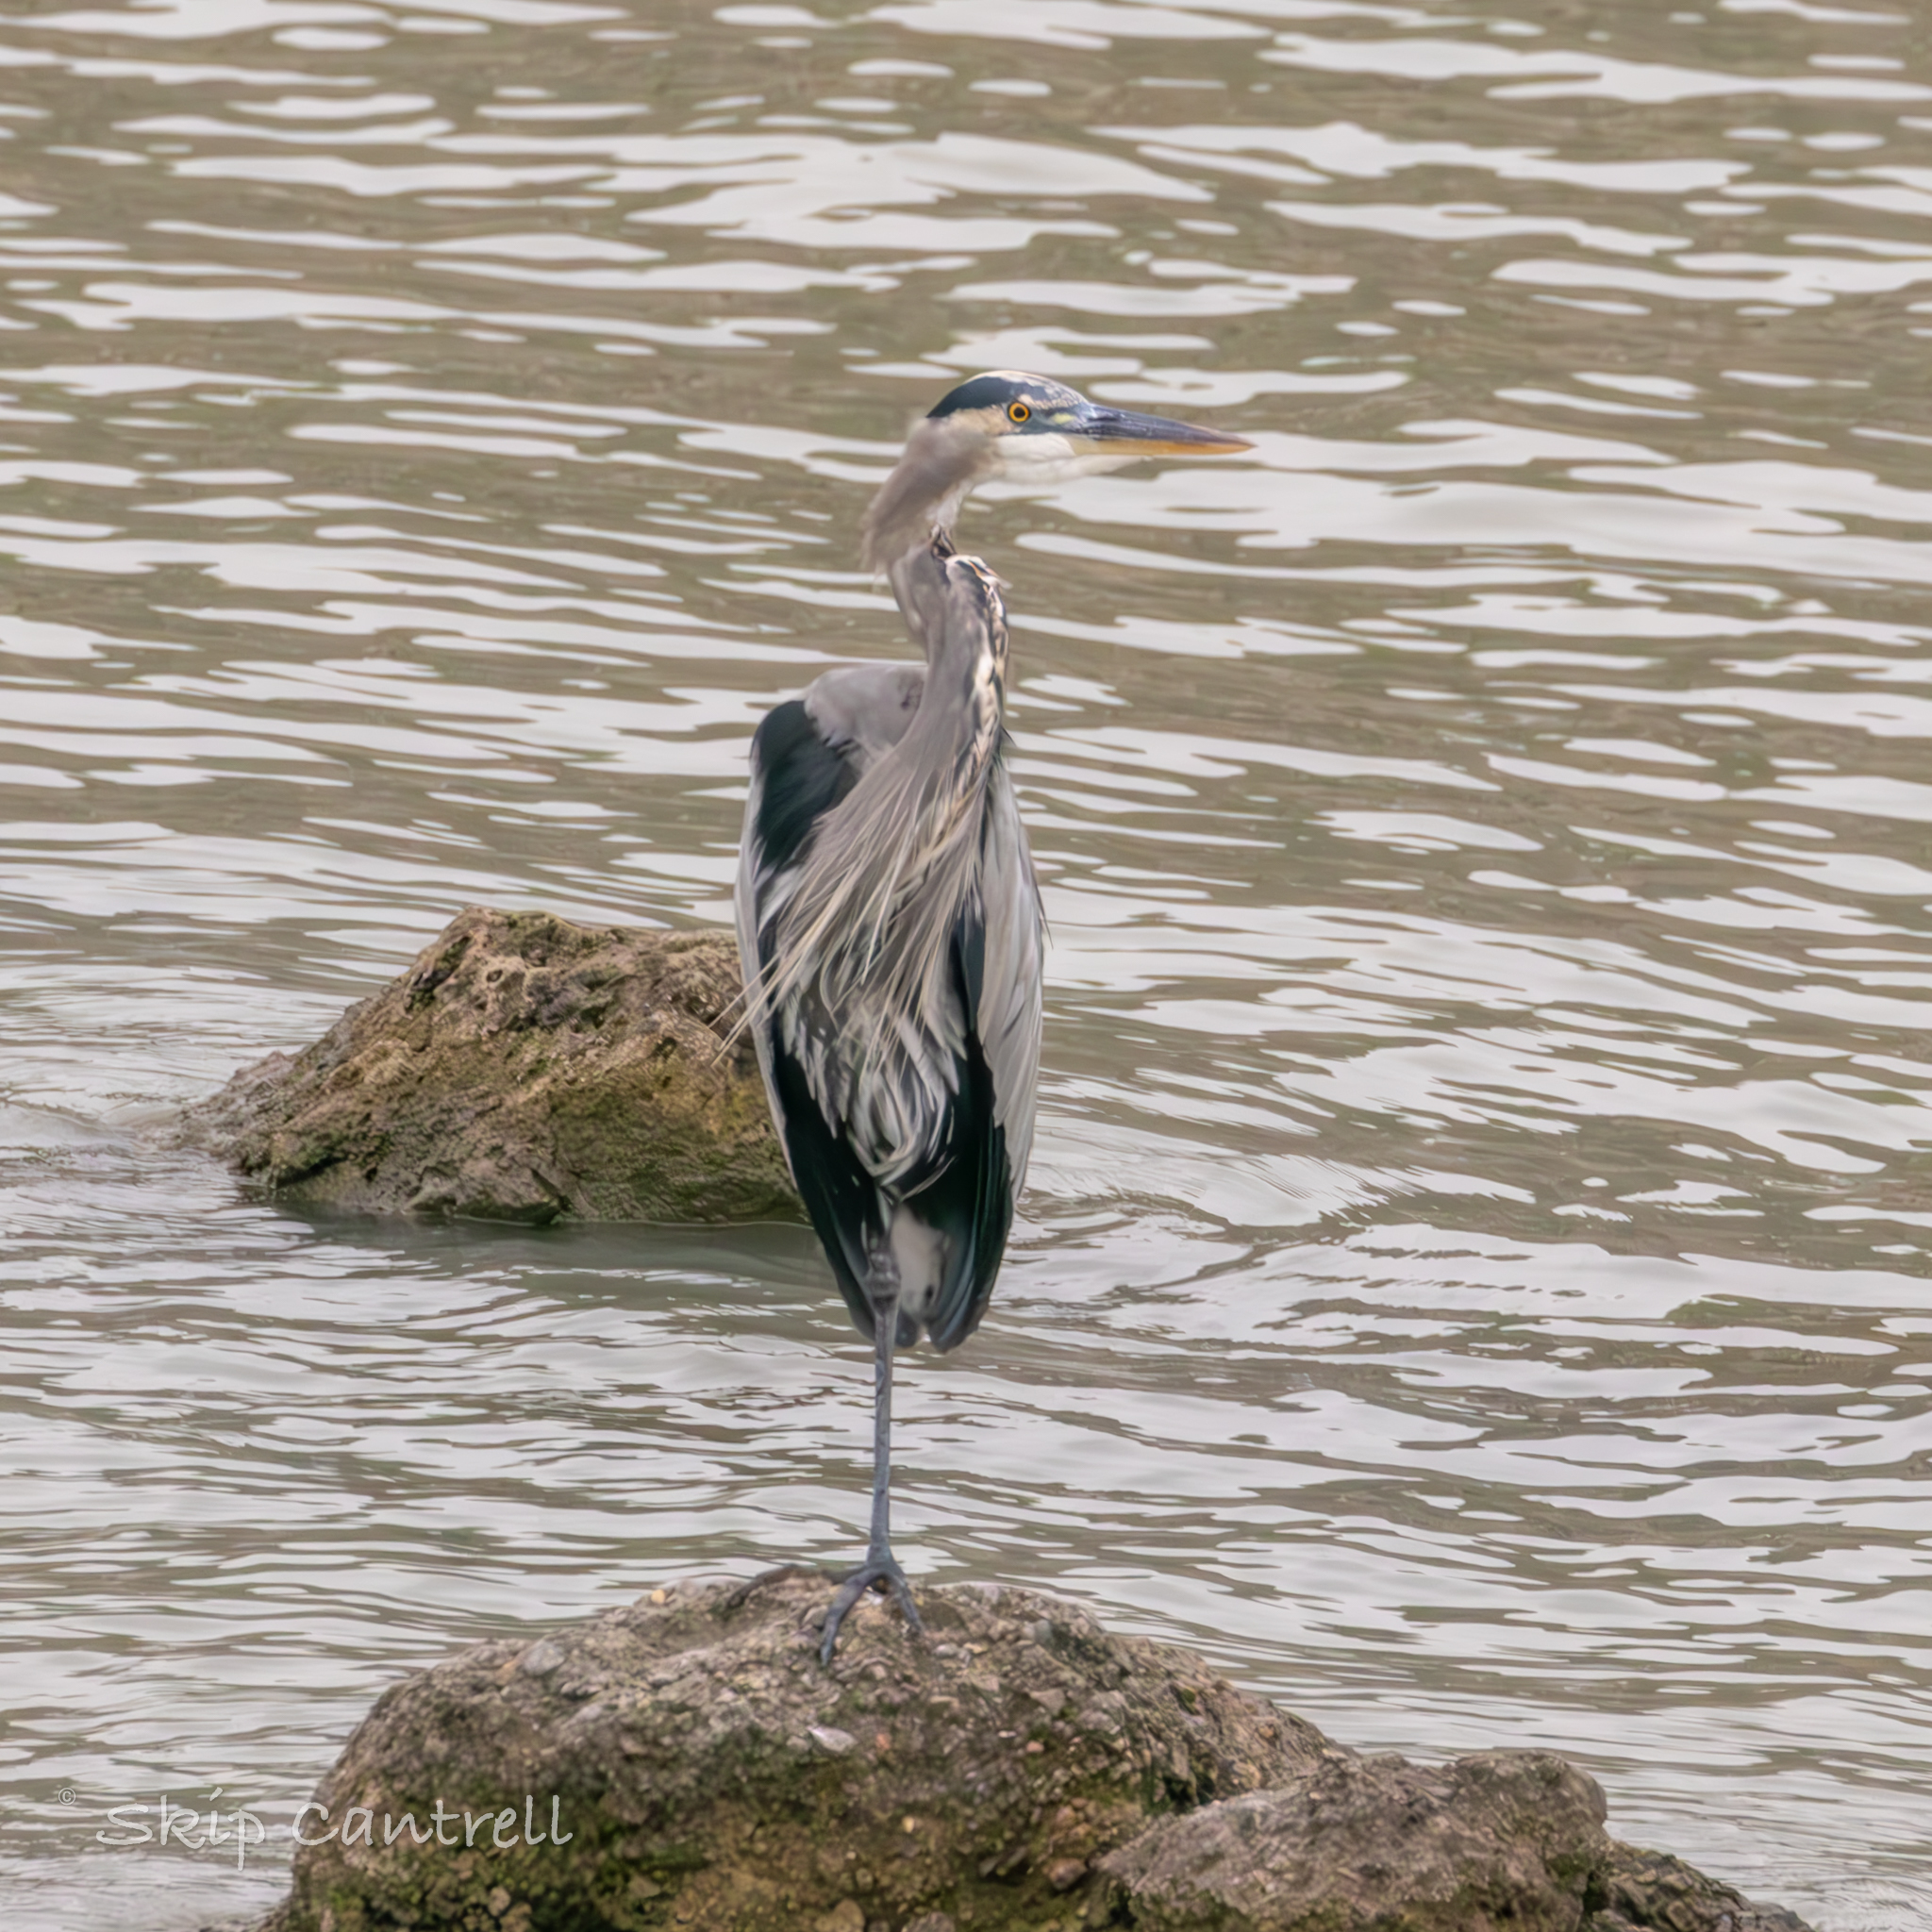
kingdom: Animalia
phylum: Chordata
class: Aves
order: Pelecaniformes
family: Ardeidae
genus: Ardea
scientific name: Ardea herodias
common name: Great blue heron
